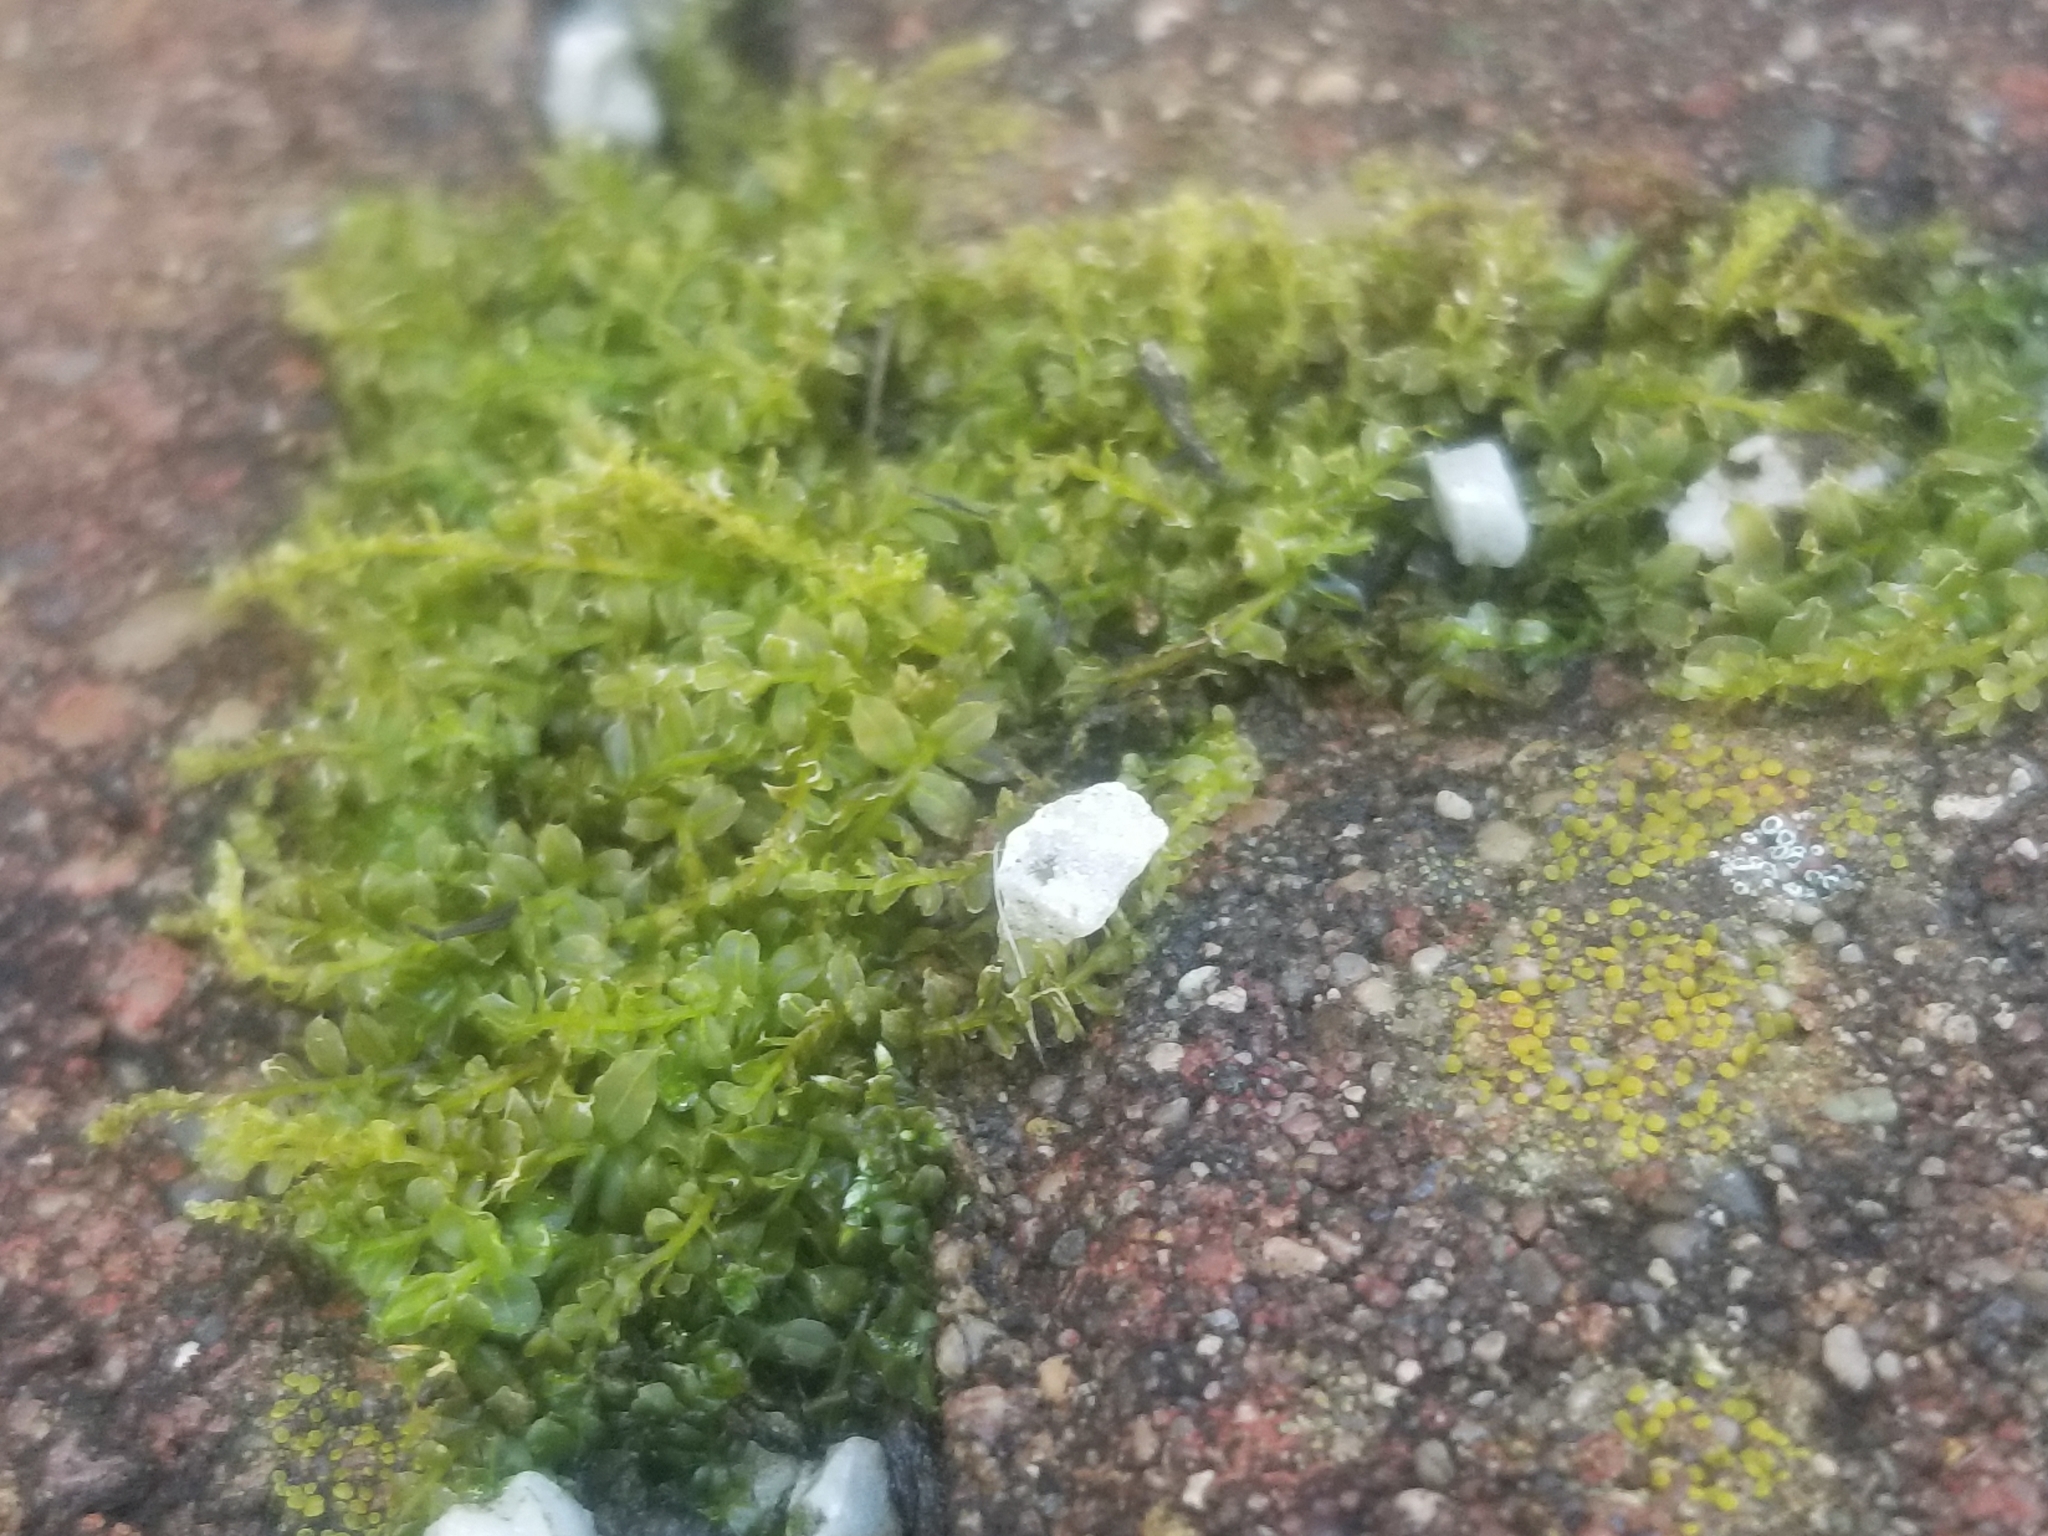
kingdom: Plantae
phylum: Bryophyta
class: Bryopsida
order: Bryales
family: Mniaceae
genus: Plagiomnium
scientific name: Plagiomnium cuspidatum
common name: Woodsy leafy moss
